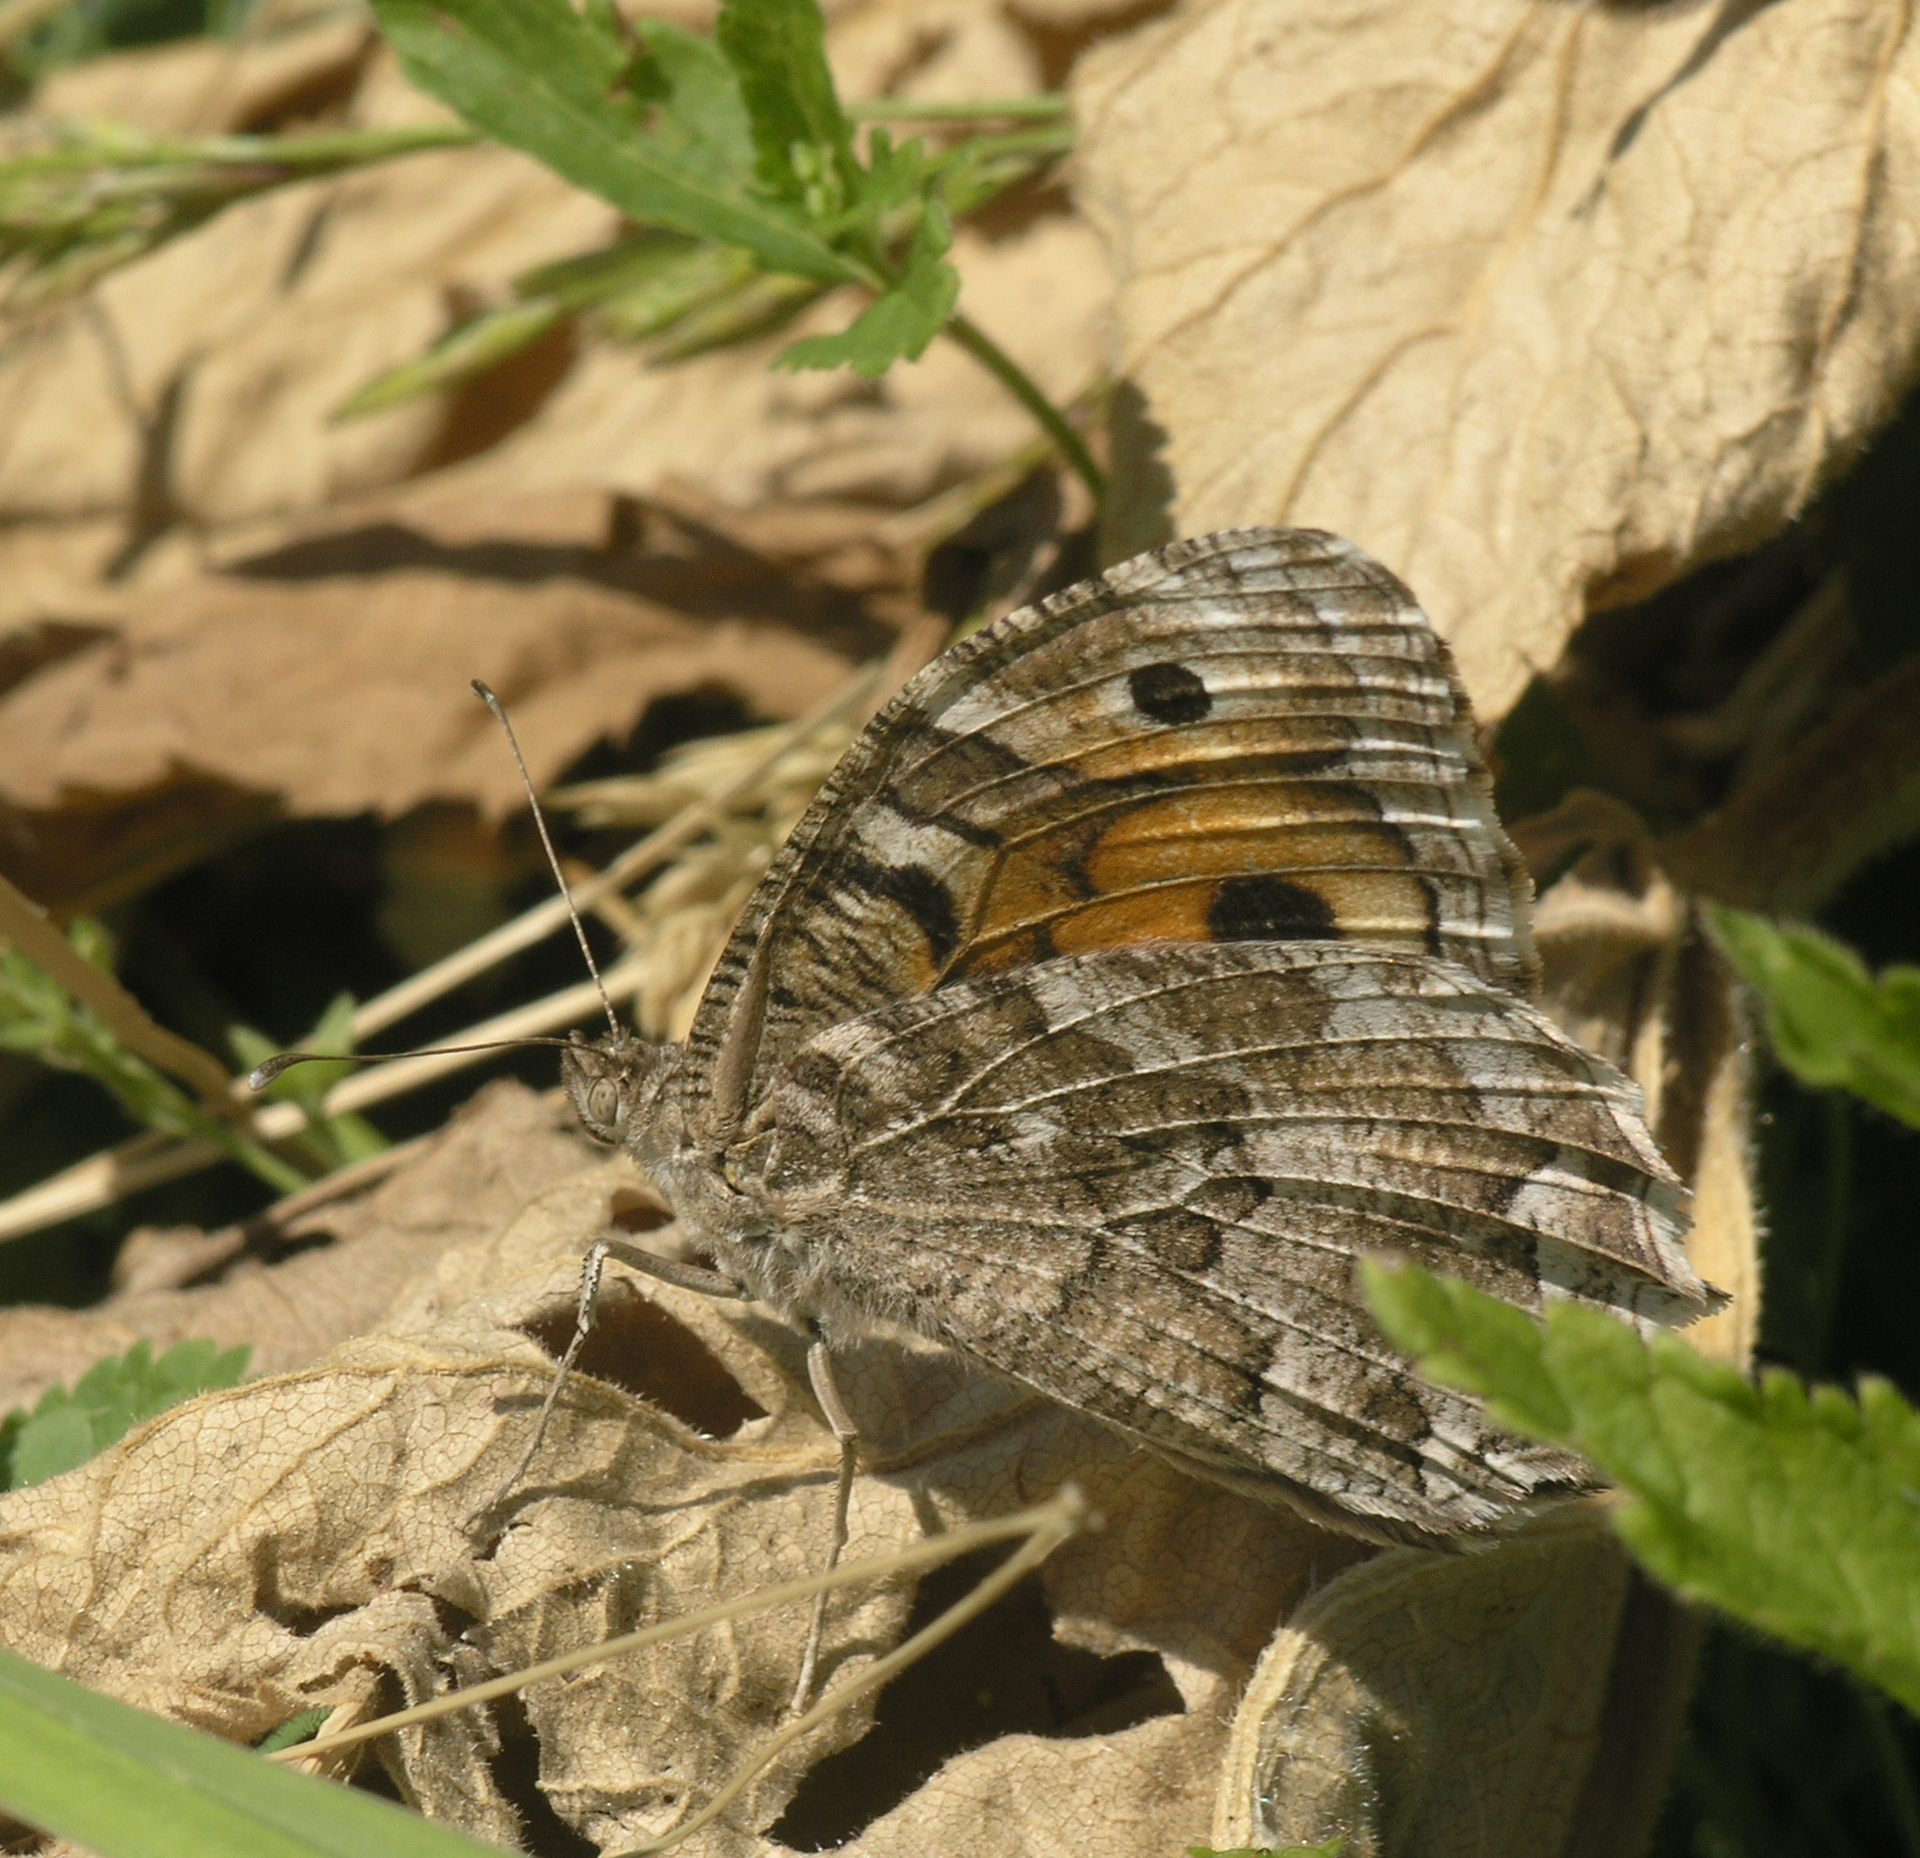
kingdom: Animalia
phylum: Arthropoda
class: Insecta
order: Lepidoptera
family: Nymphalidae
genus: Satyrus
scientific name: Satyrus Chazara enervata
